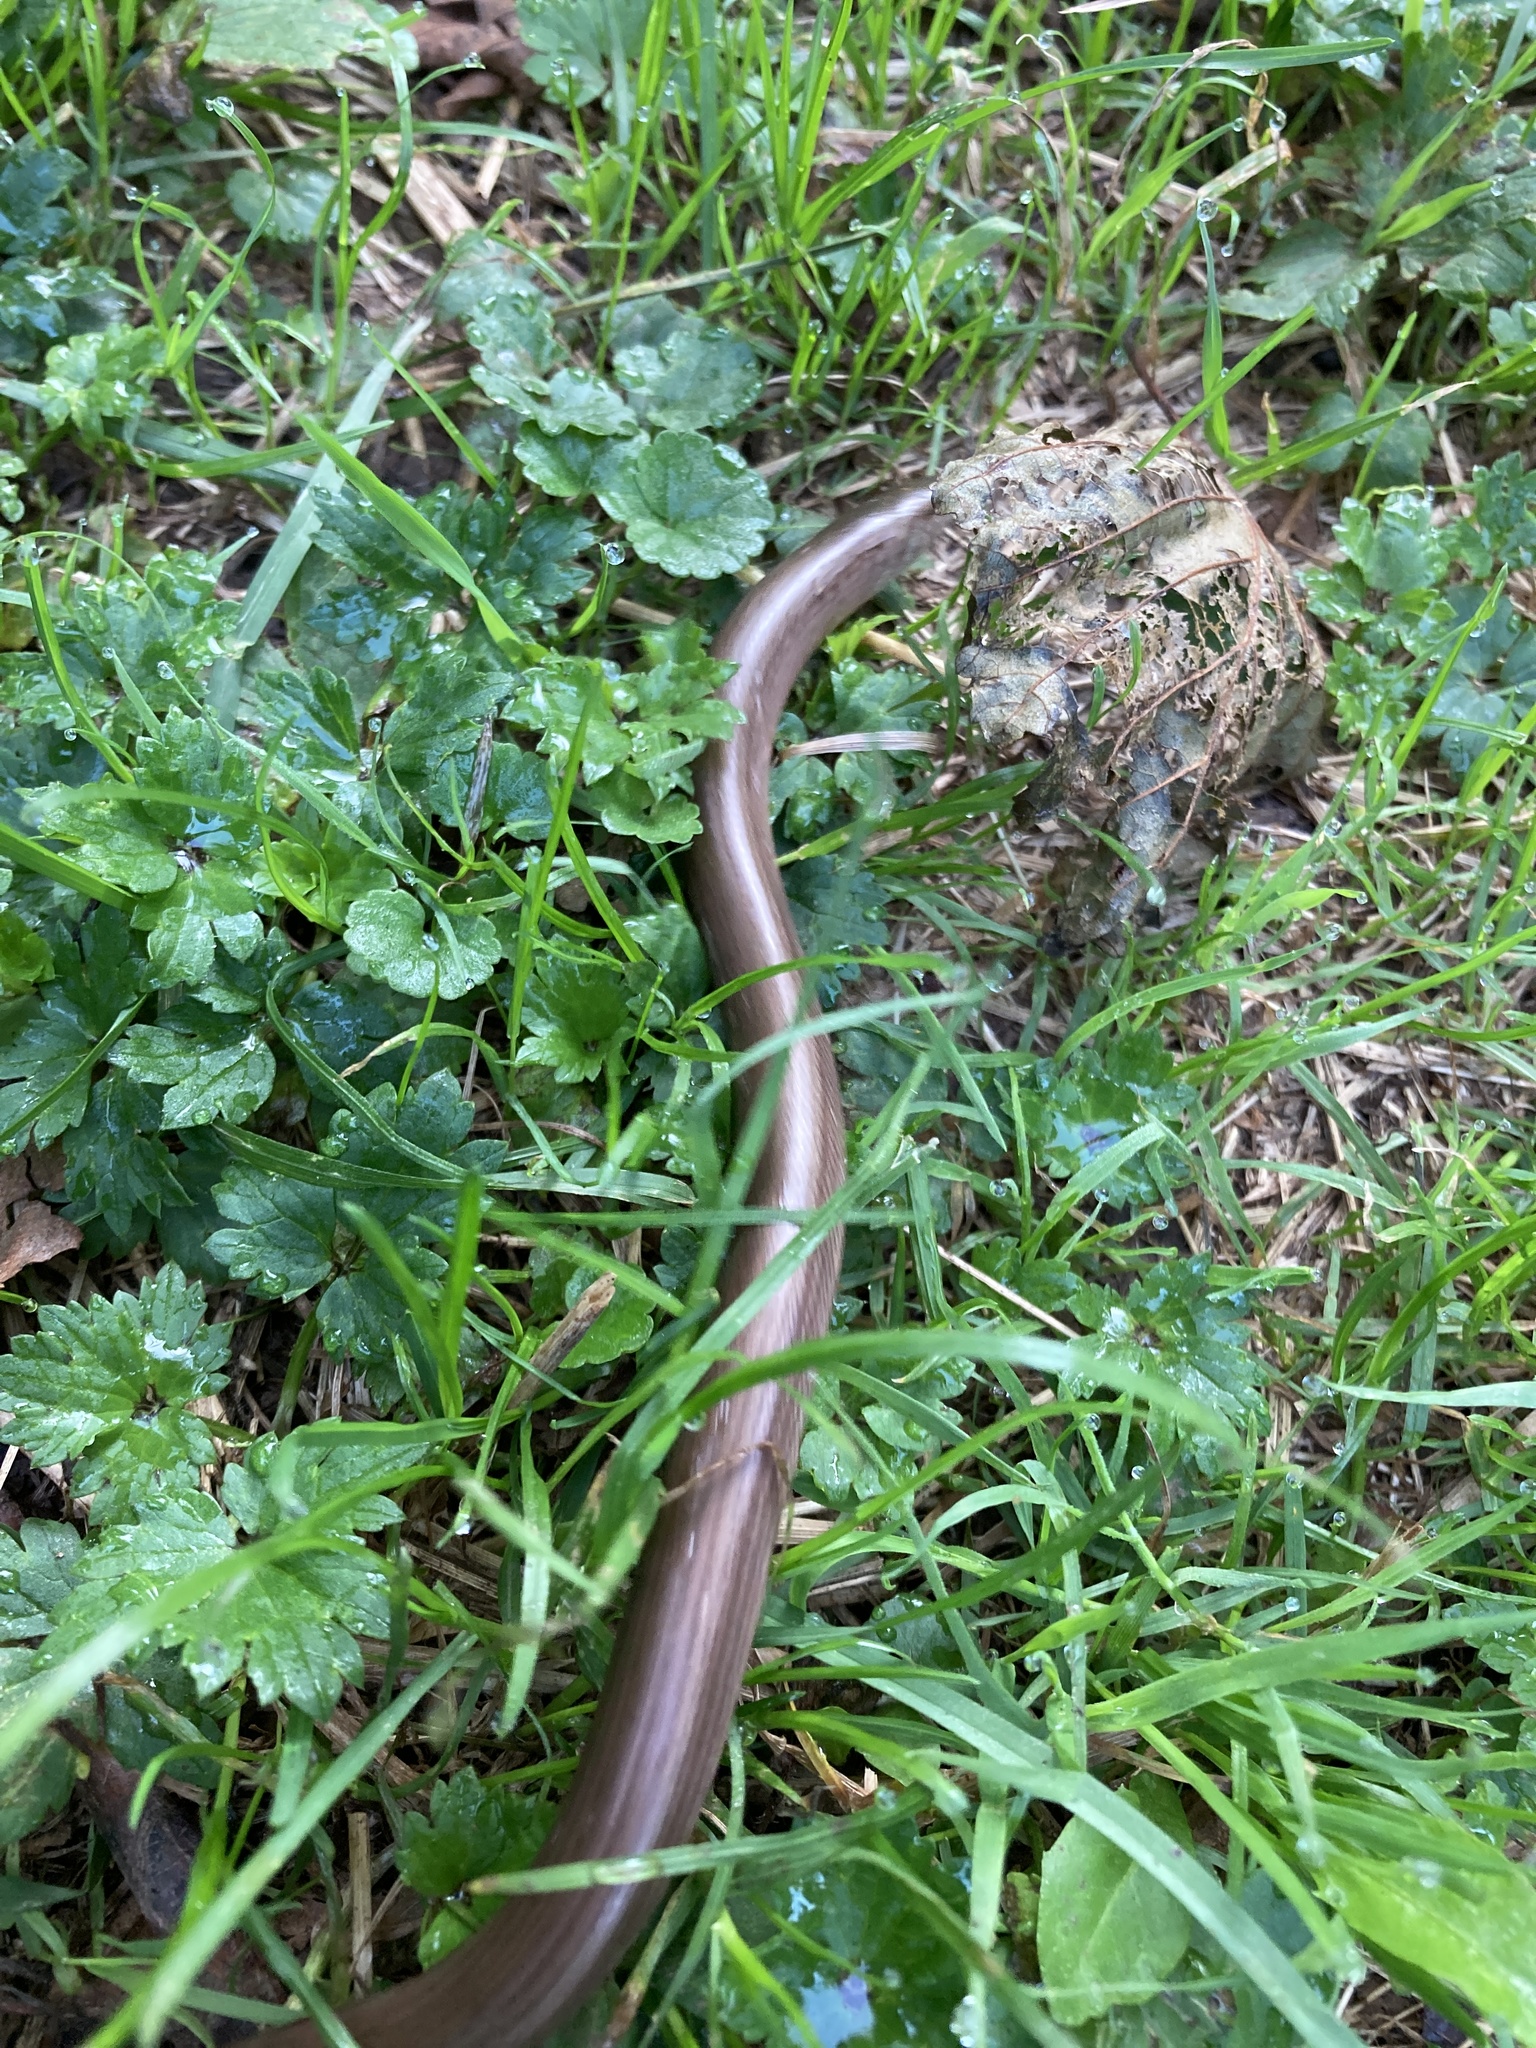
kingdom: Animalia
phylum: Chordata
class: Squamata
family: Anguidae
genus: Anguis
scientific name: Anguis fragilis
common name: Slow worm
